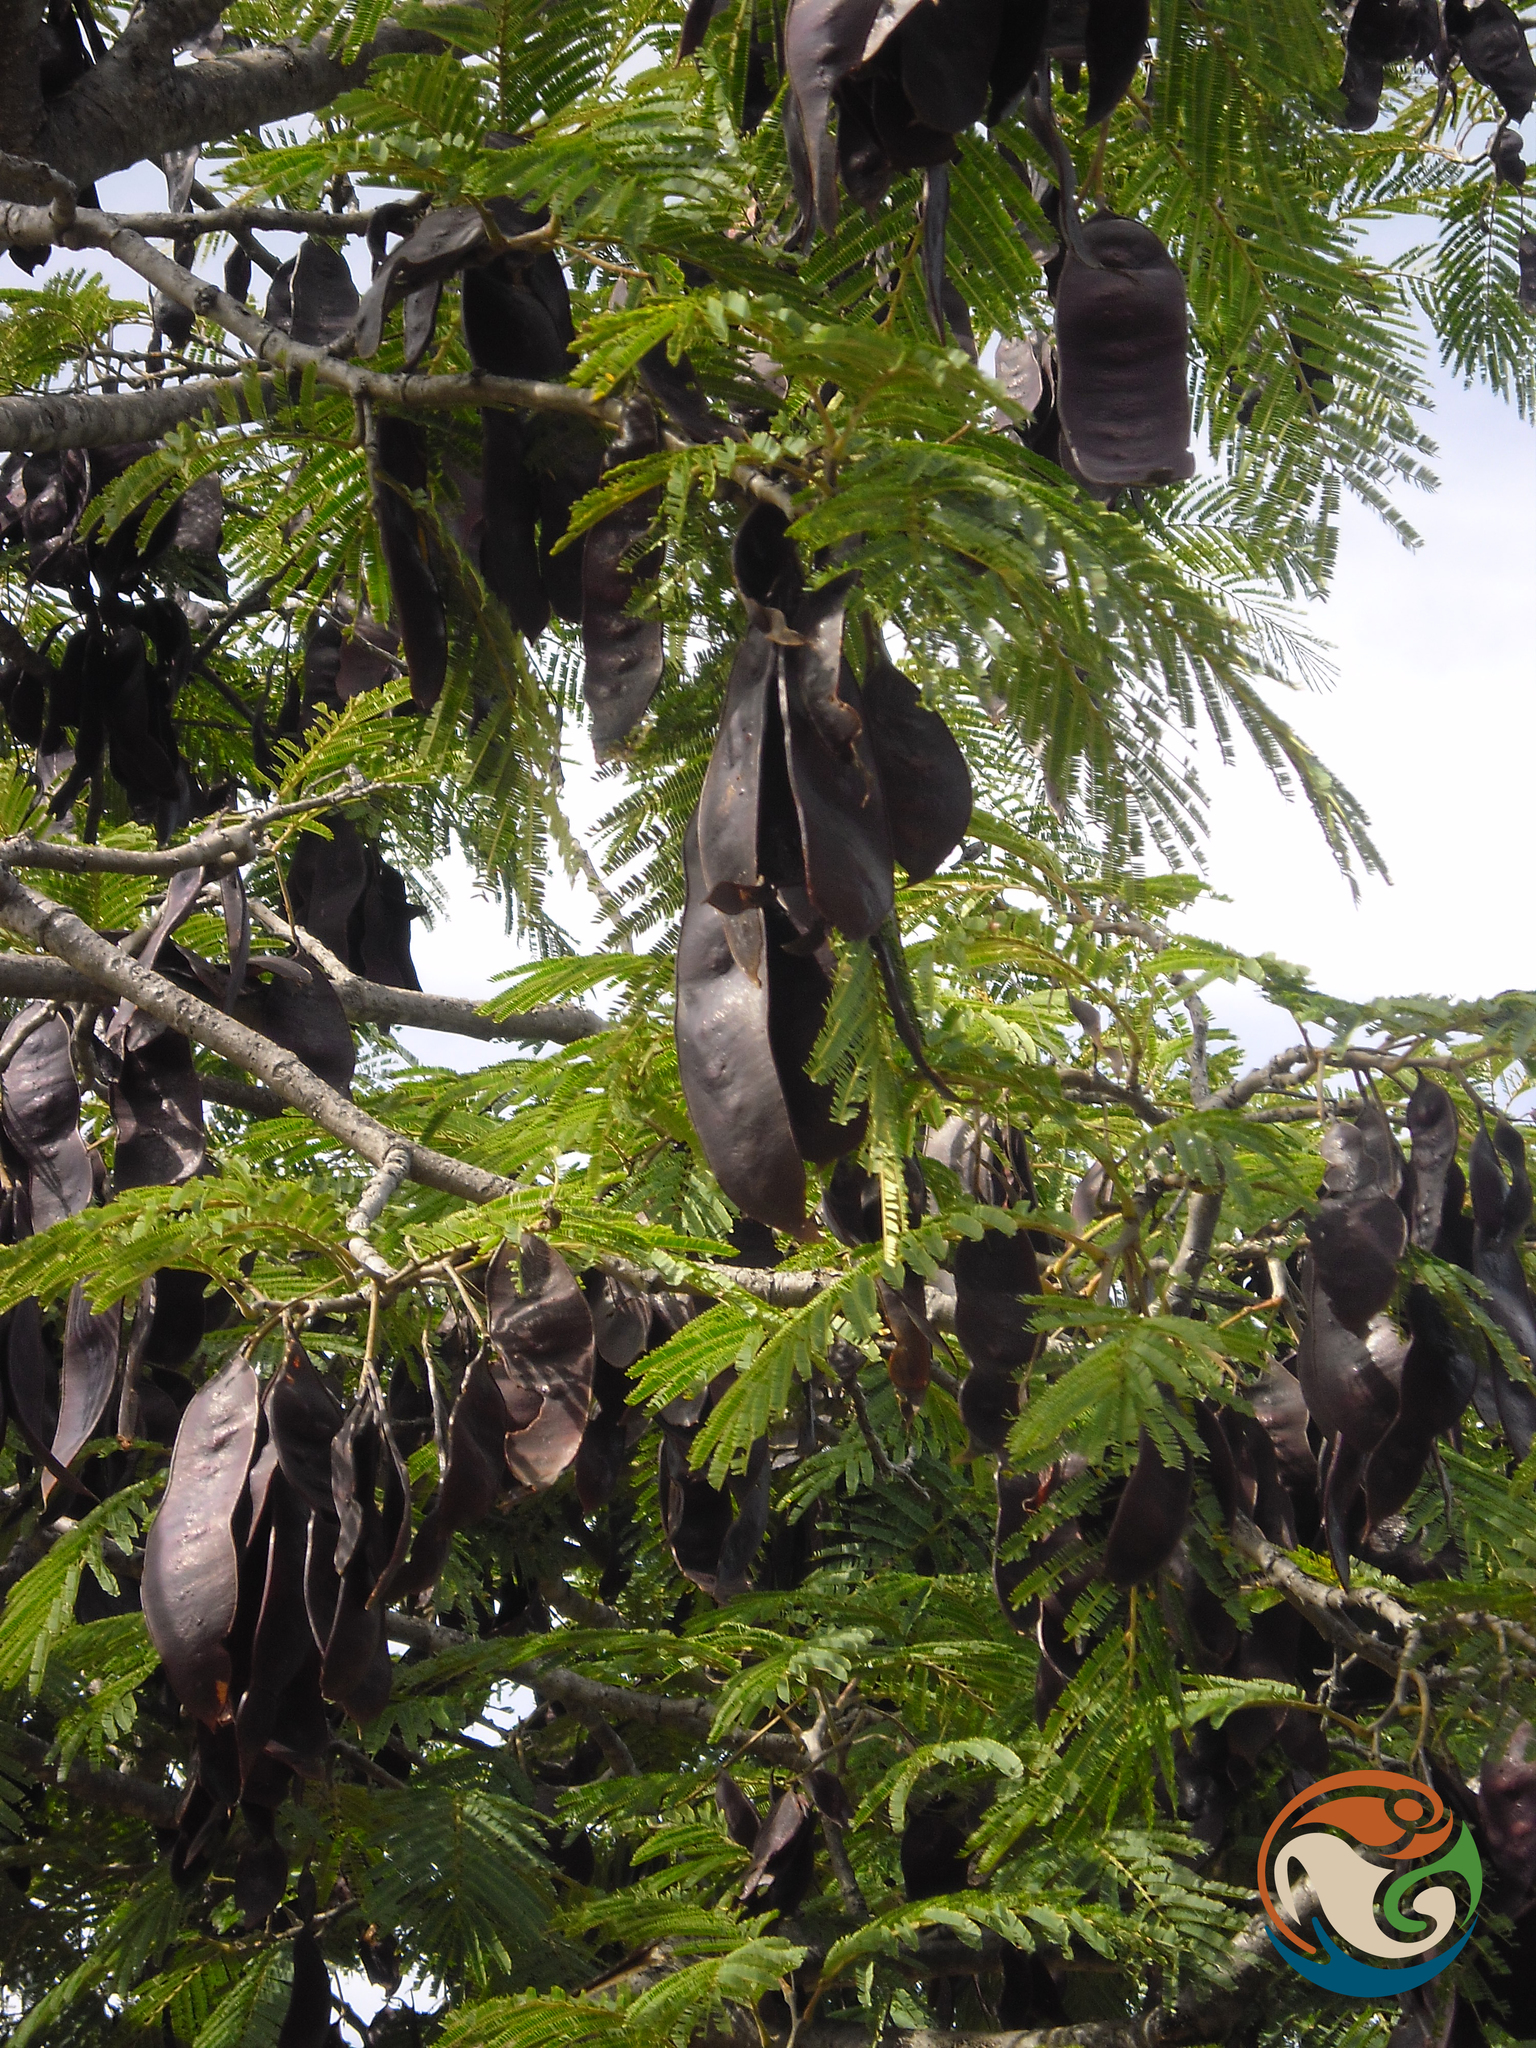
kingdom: Plantae
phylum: Tracheophyta
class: Magnoliopsida
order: Fabales
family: Fabaceae
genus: Lysiloma
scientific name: Lysiloma acapulcense
